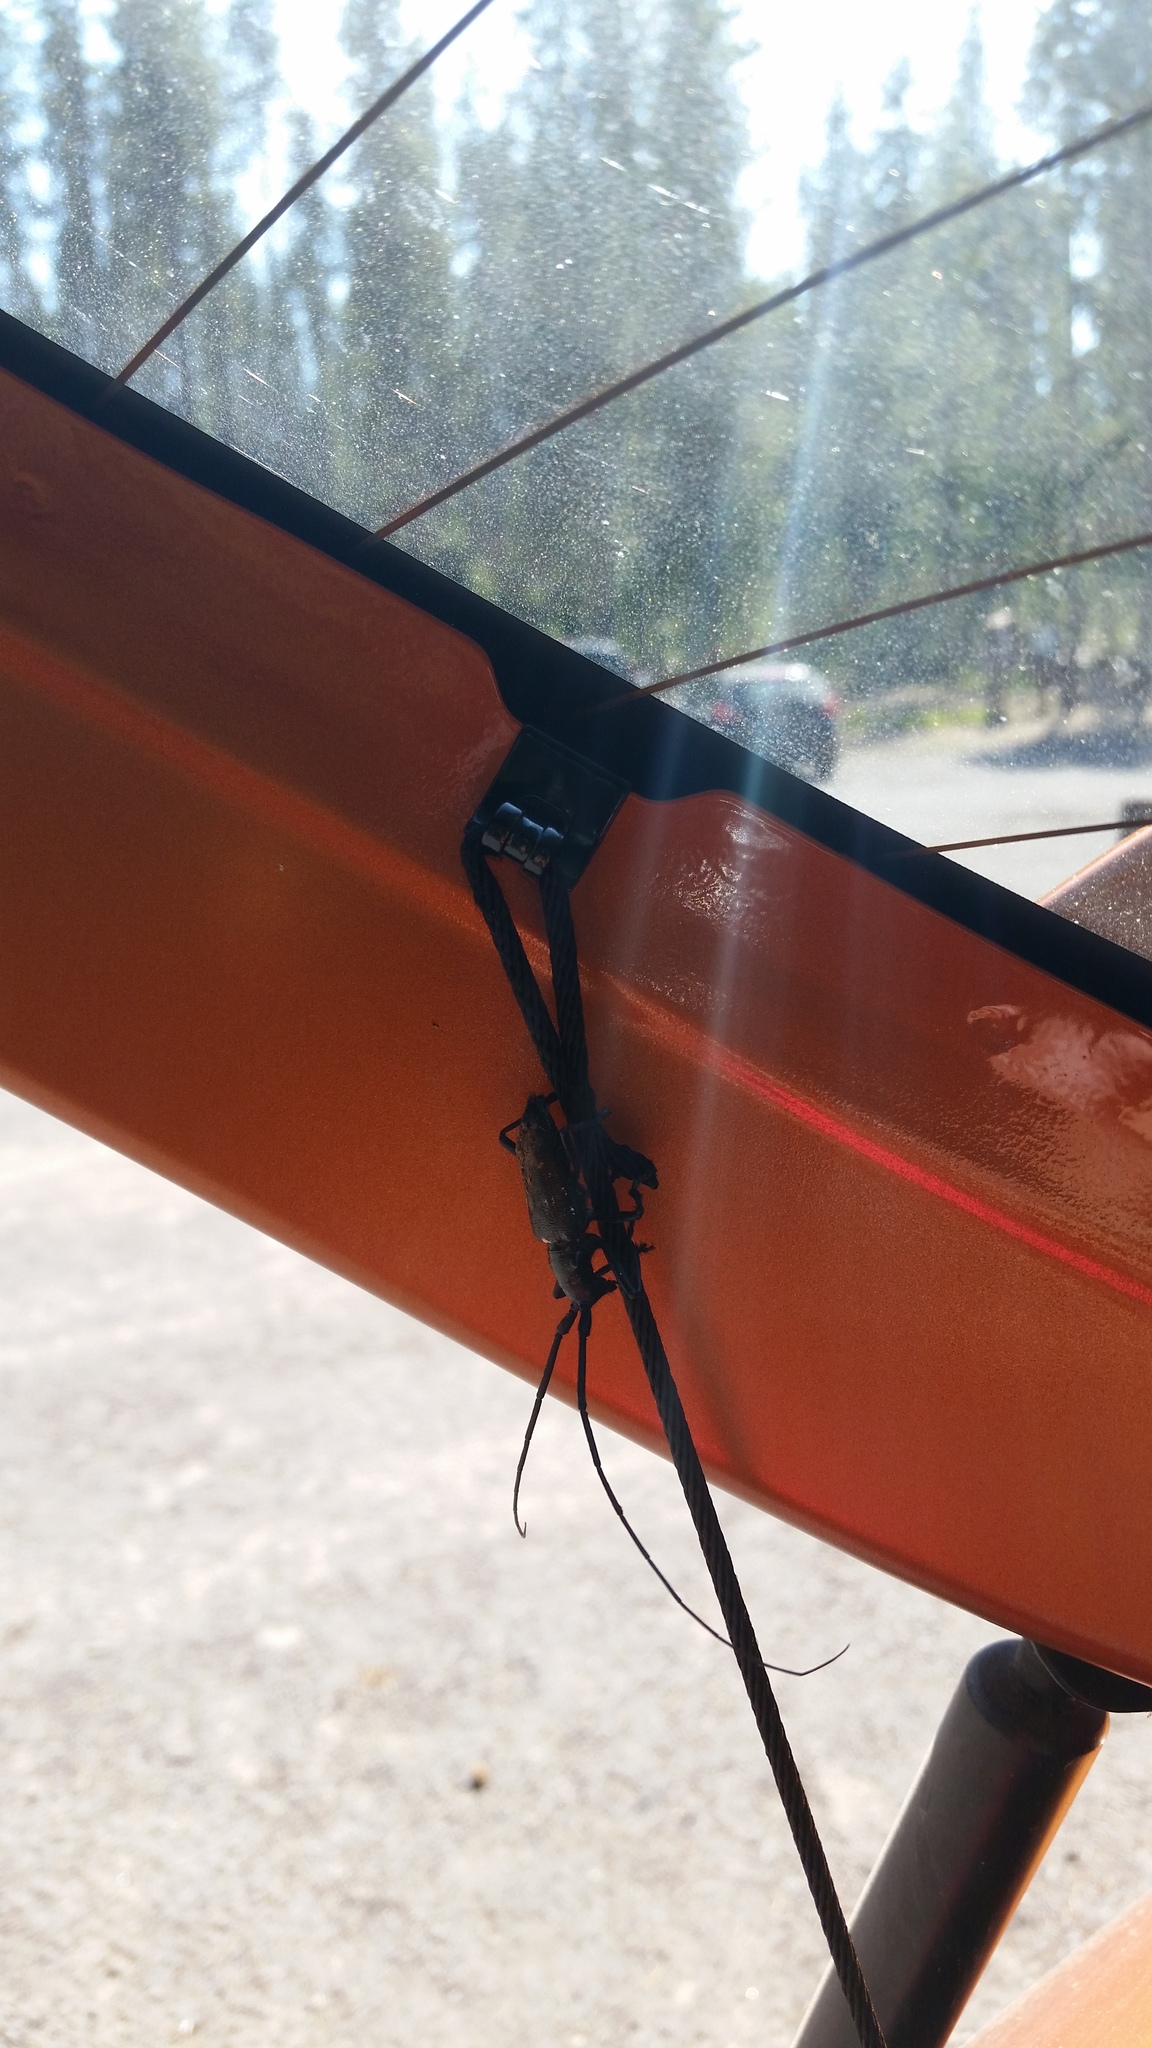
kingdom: Animalia
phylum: Arthropoda
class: Insecta
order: Coleoptera
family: Cerambycidae
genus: Monochamus
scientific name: Monochamus scutellatus
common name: White-spotted sawyer beetle
